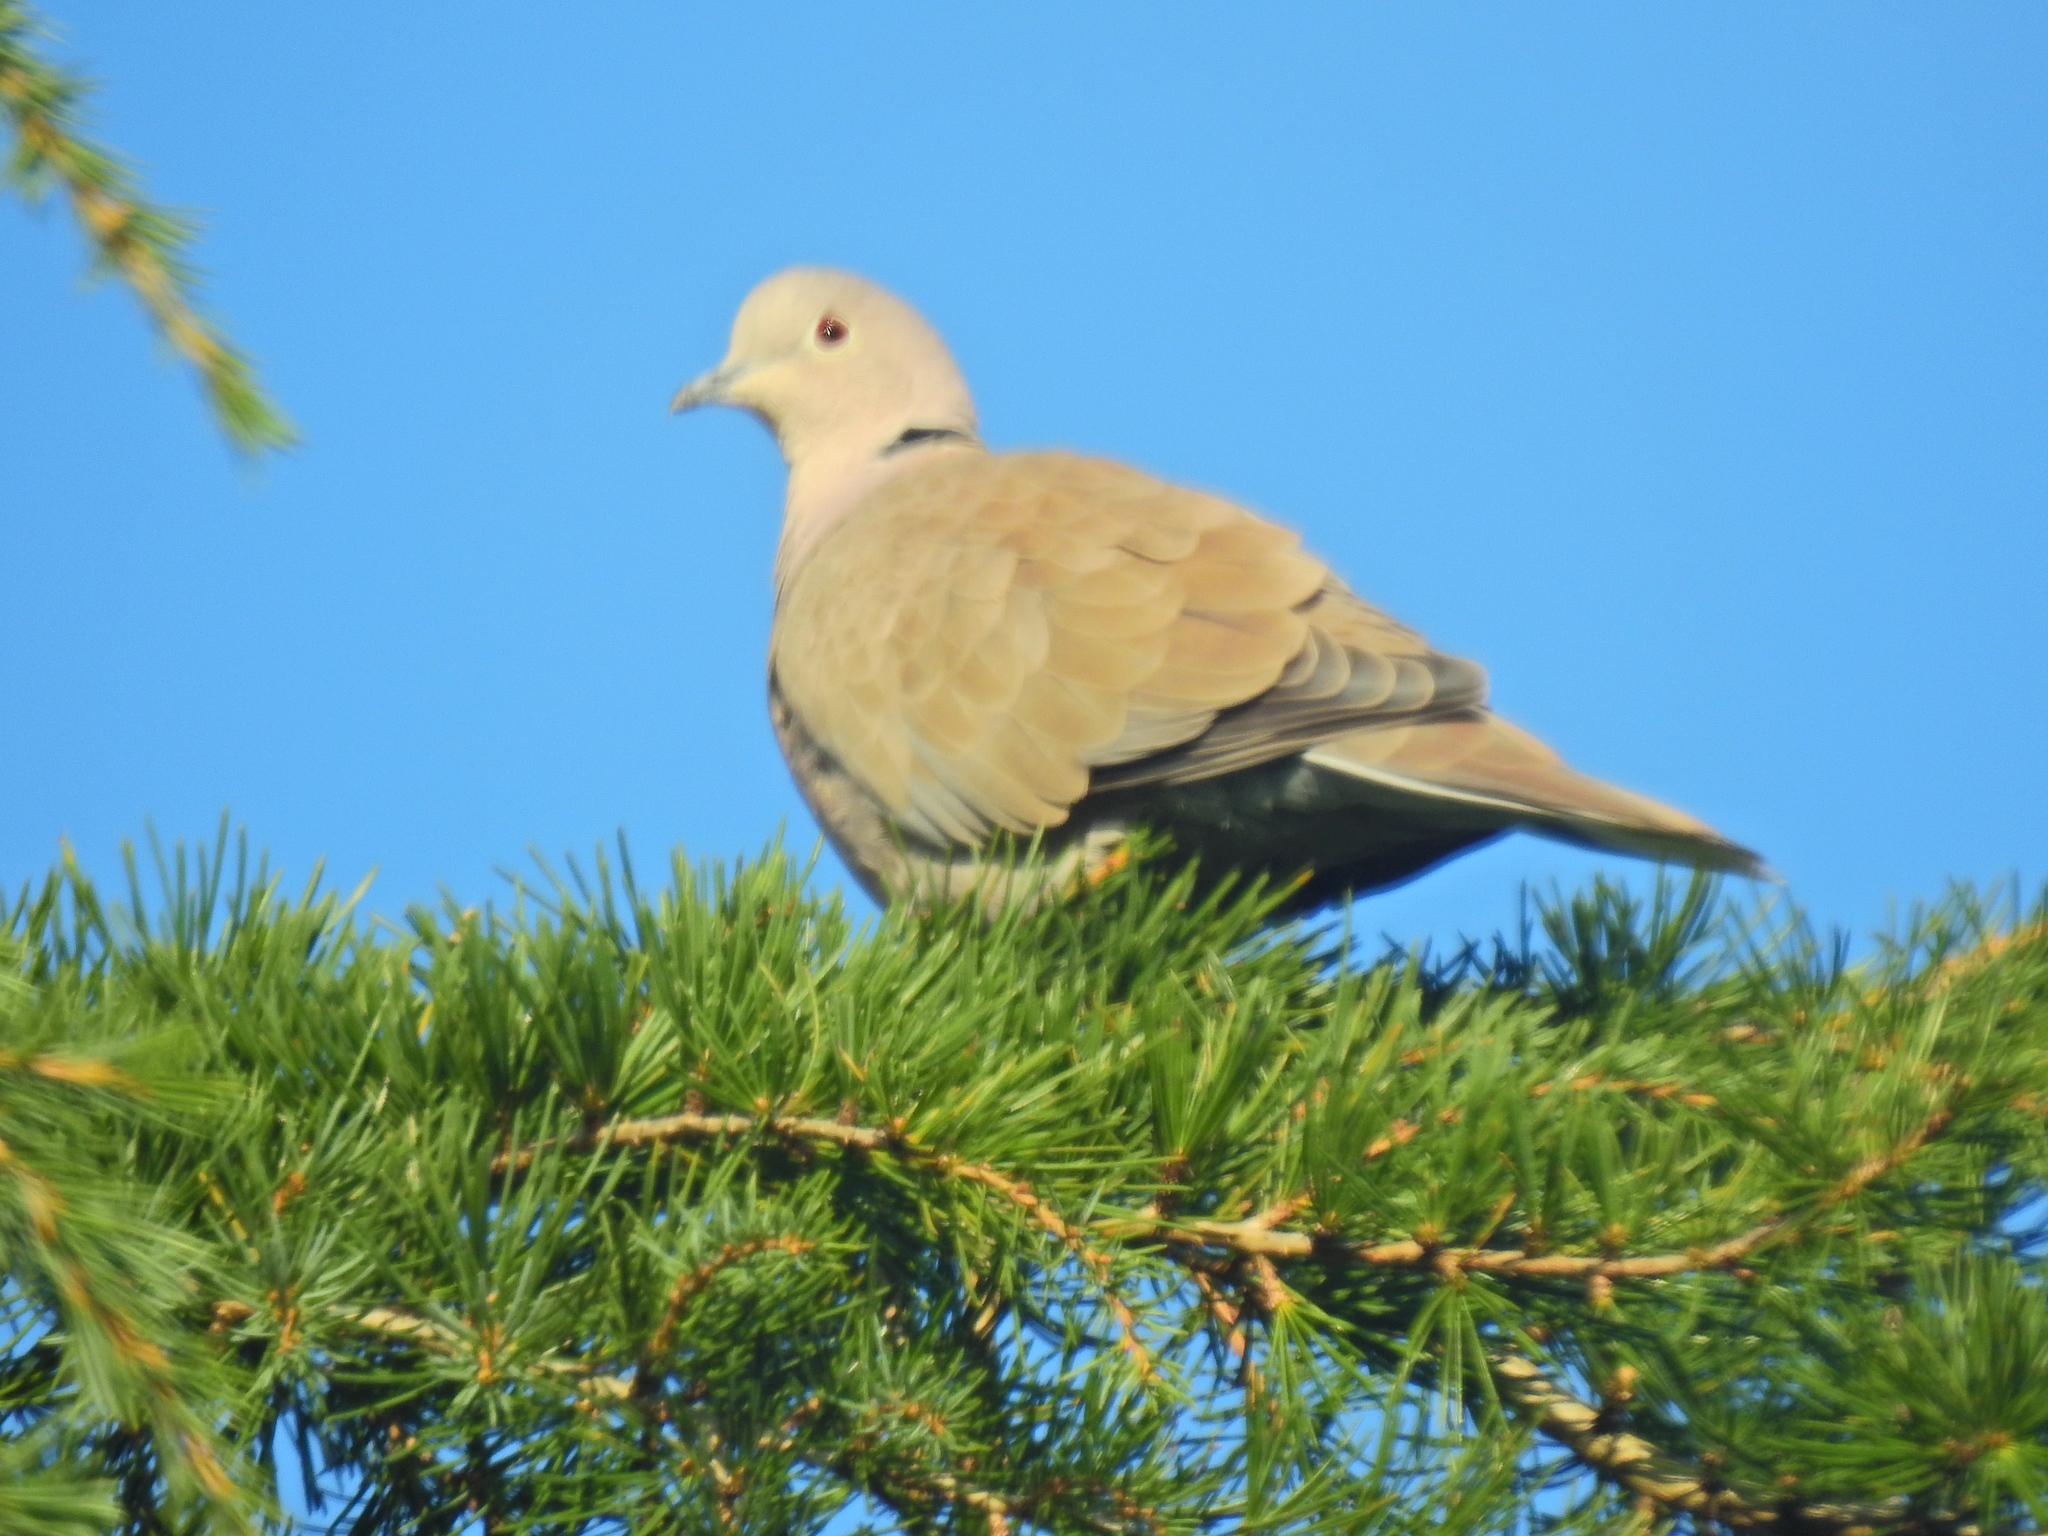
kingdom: Animalia
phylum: Chordata
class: Aves
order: Columbiformes
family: Columbidae
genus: Streptopelia
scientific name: Streptopelia decaocto
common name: Eurasian collared dove
